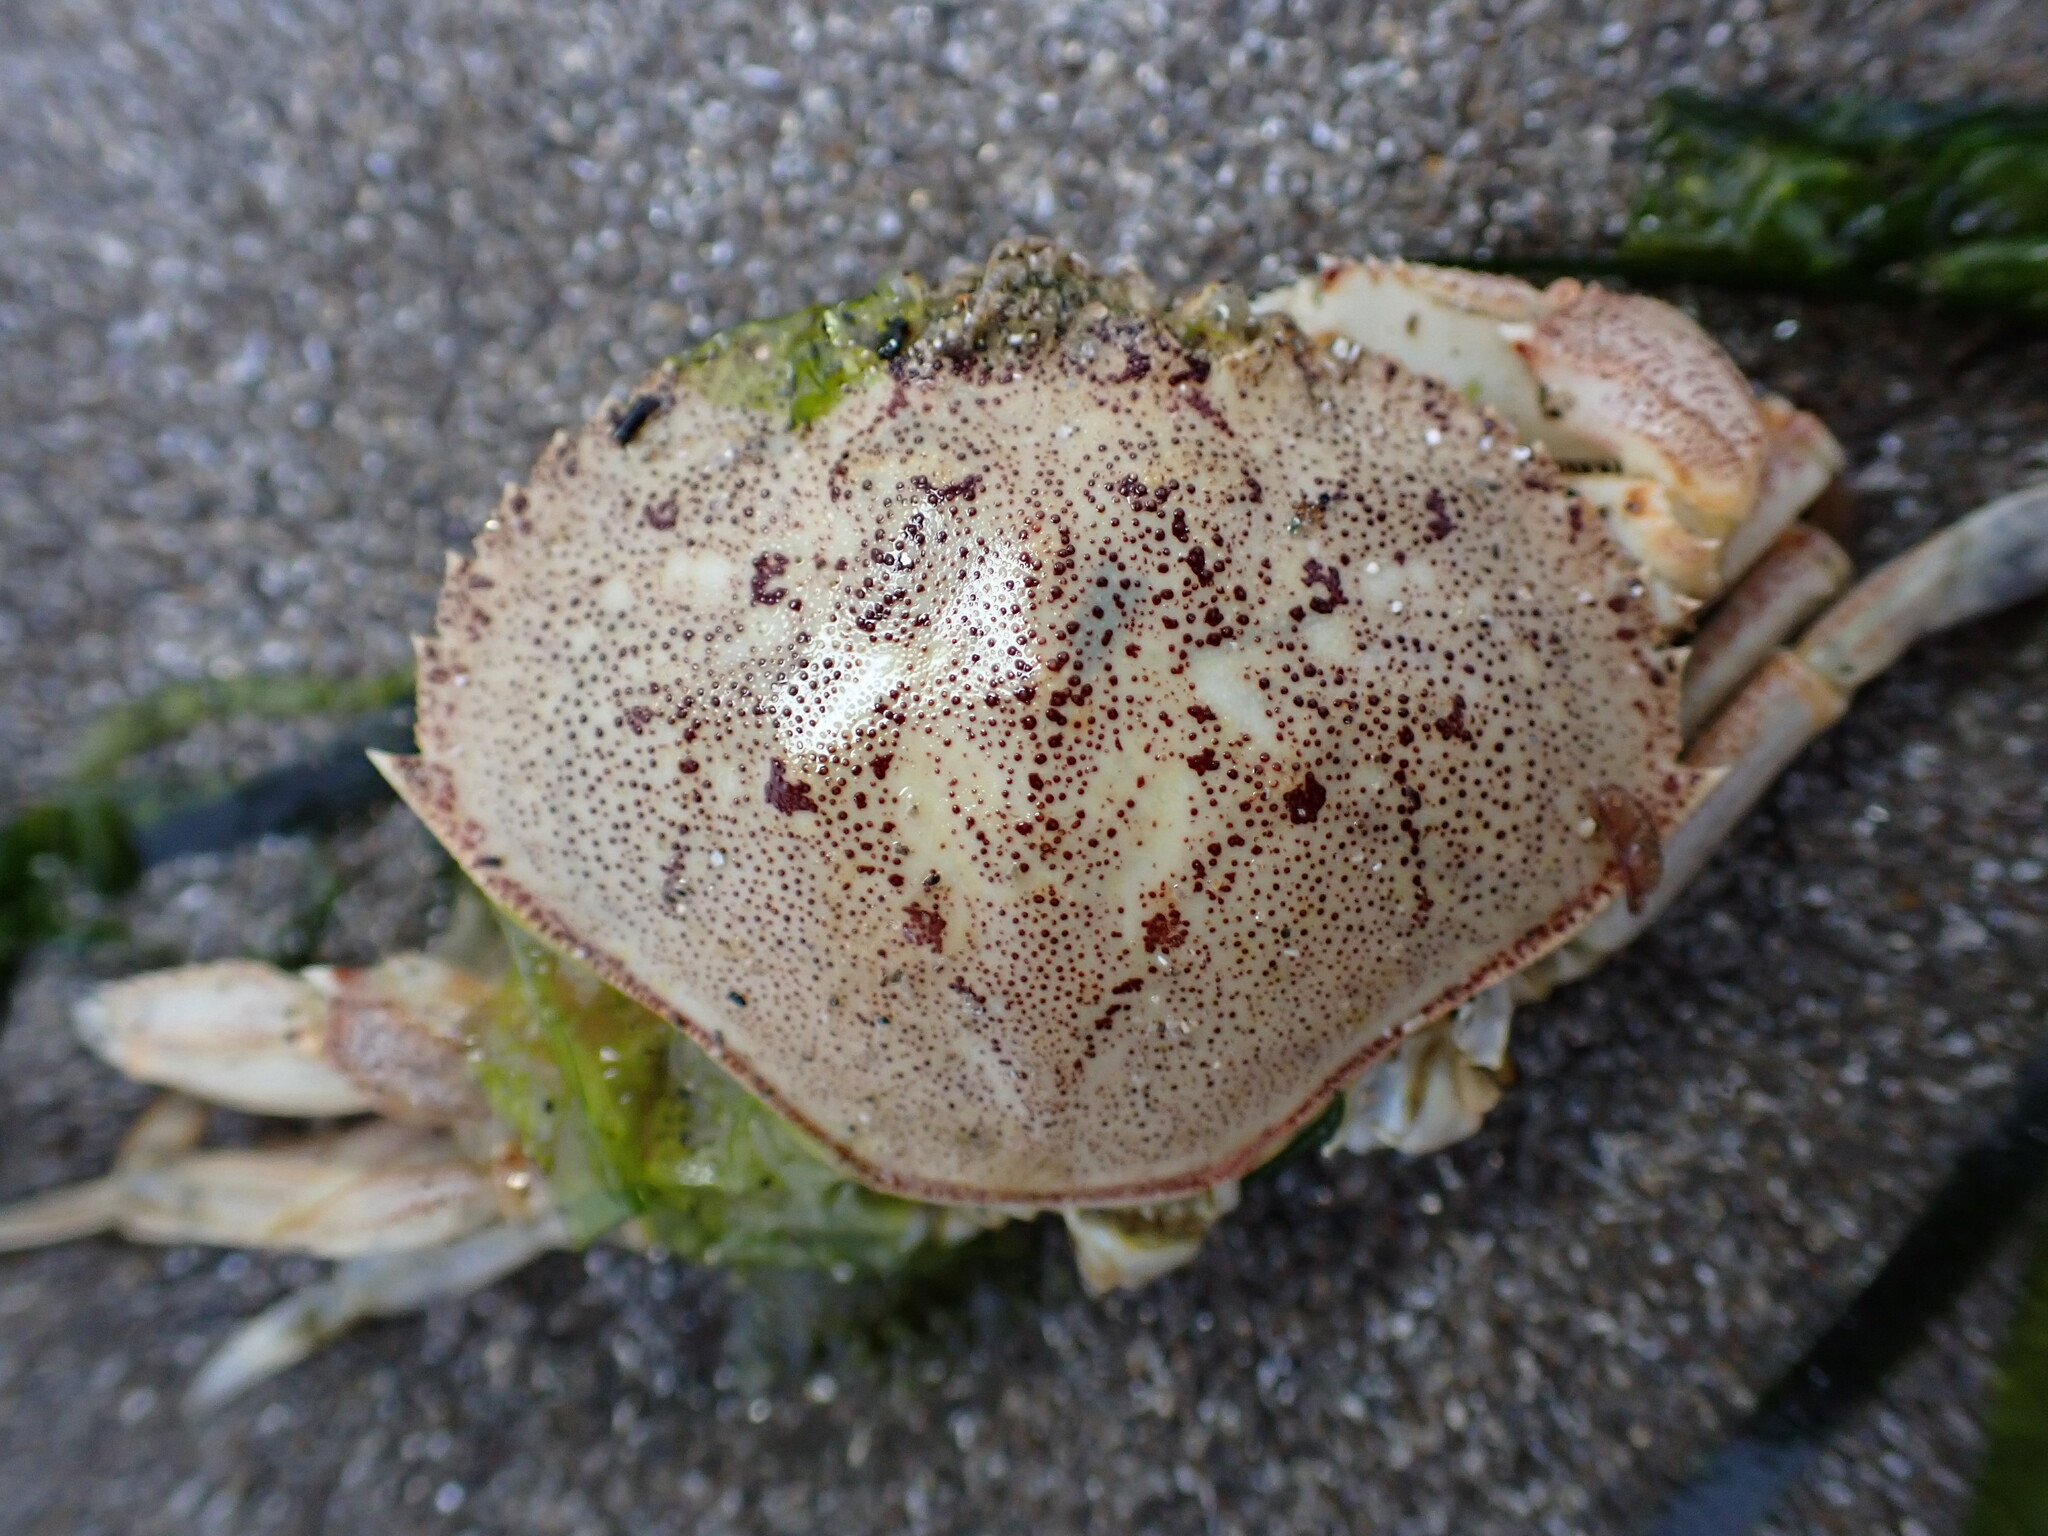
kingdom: Animalia
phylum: Arthropoda
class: Malacostraca
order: Decapoda
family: Cancridae
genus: Metacarcinus
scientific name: Metacarcinus magister
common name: Californian crab
